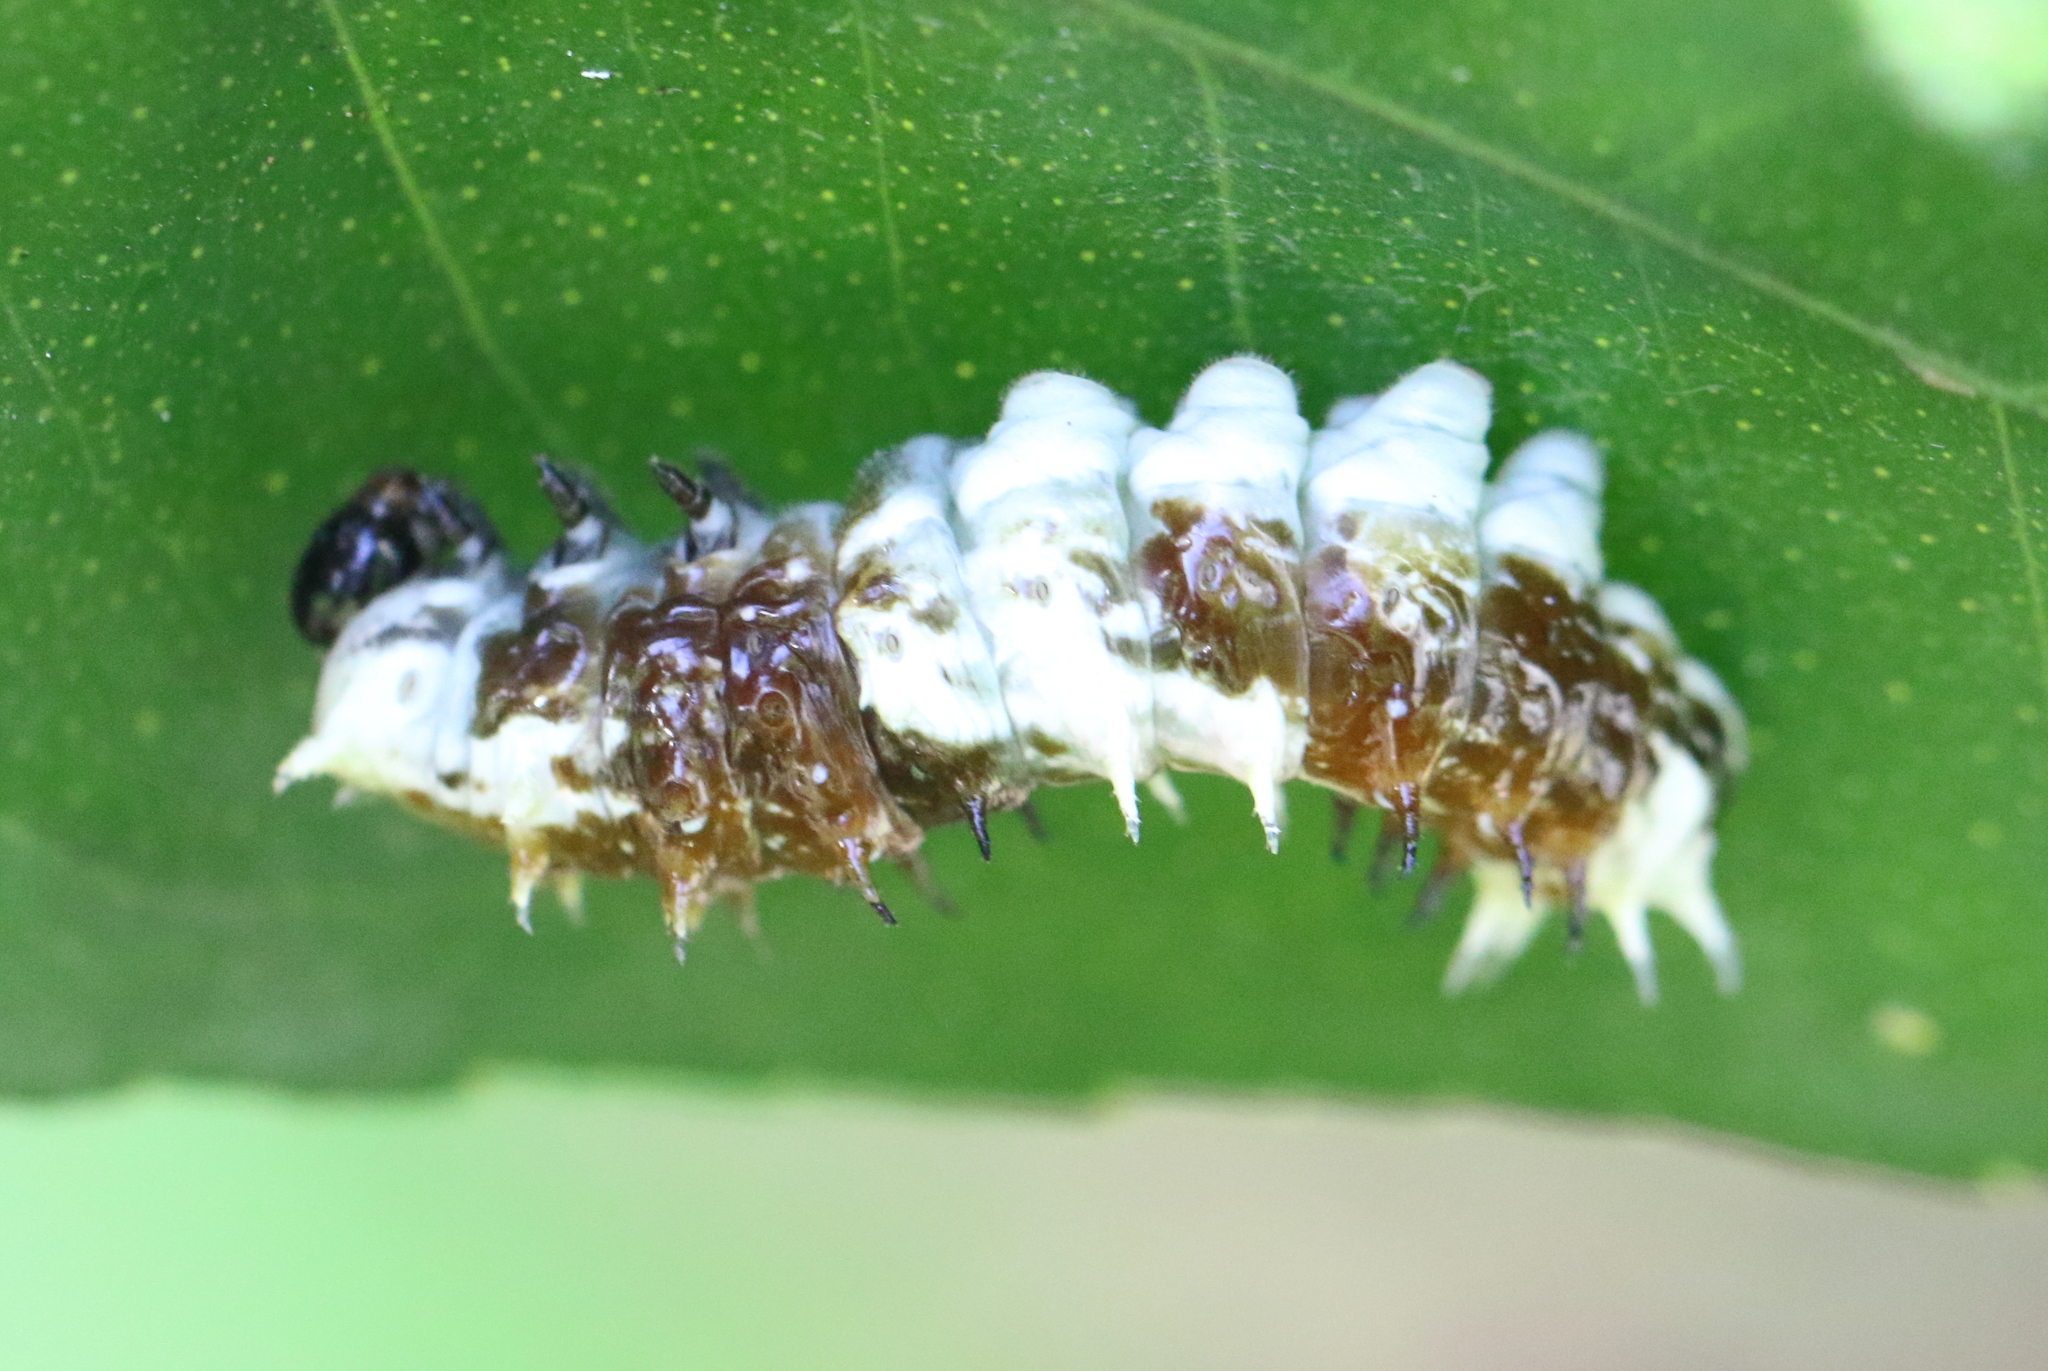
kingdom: Animalia
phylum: Arthropoda
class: Insecta
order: Lepidoptera
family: Papilionidae
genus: Papilio
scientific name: Papilio aegeus
